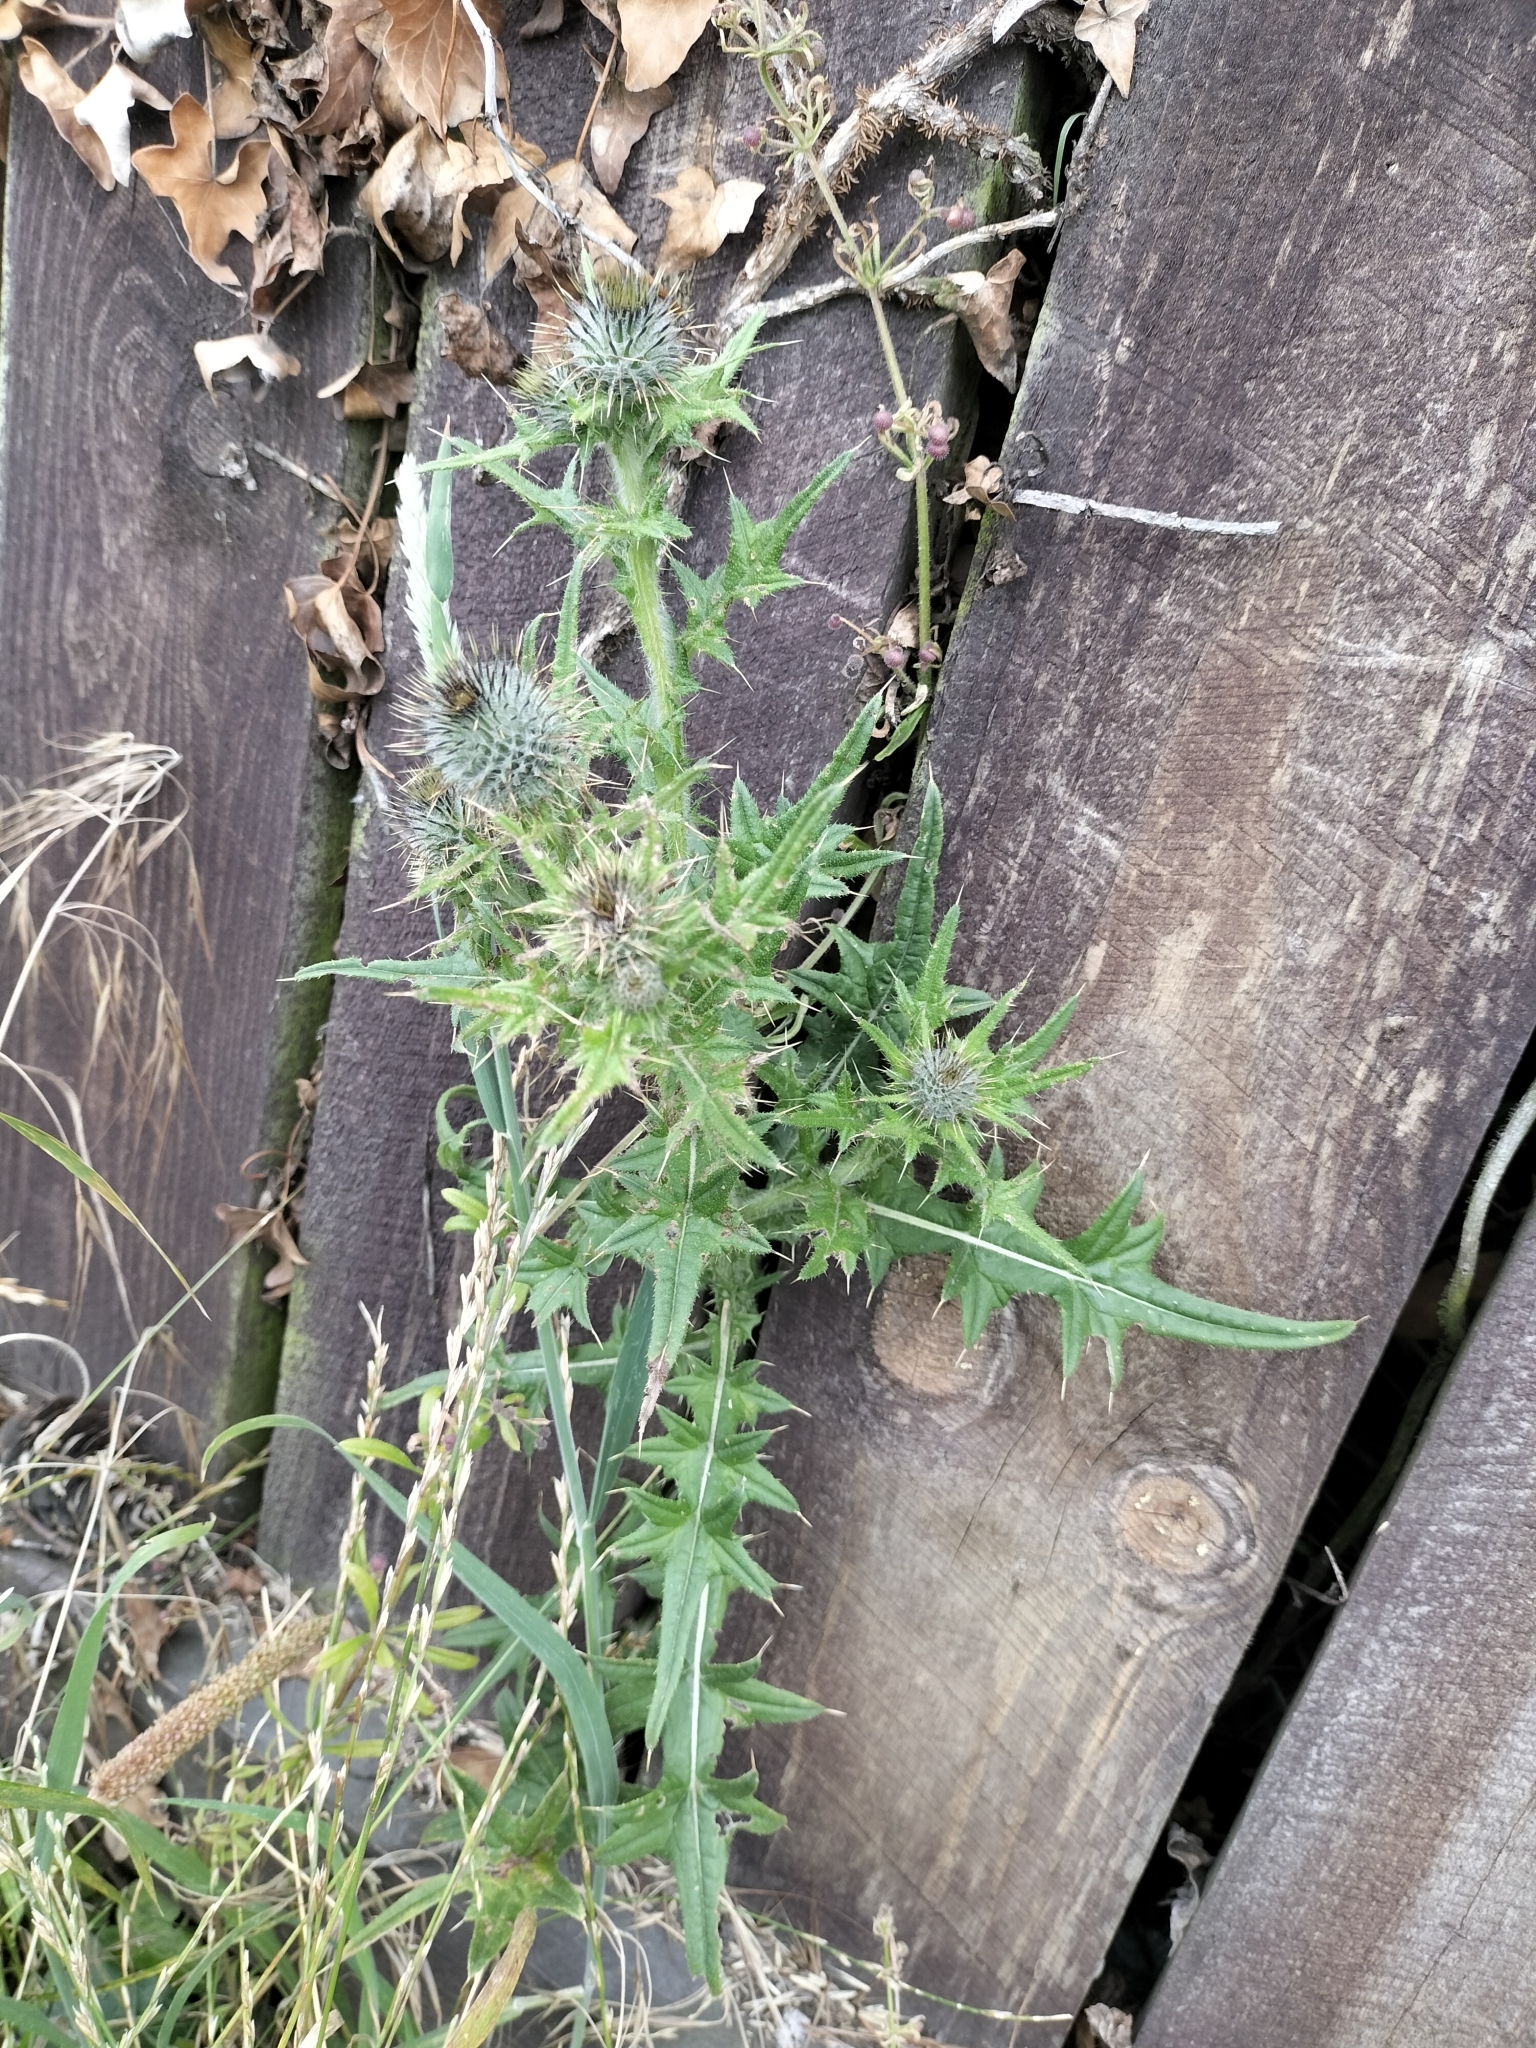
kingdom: Plantae
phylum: Tracheophyta
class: Magnoliopsida
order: Asterales
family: Asteraceae
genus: Cirsium
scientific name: Cirsium vulgare
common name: Bull thistle
